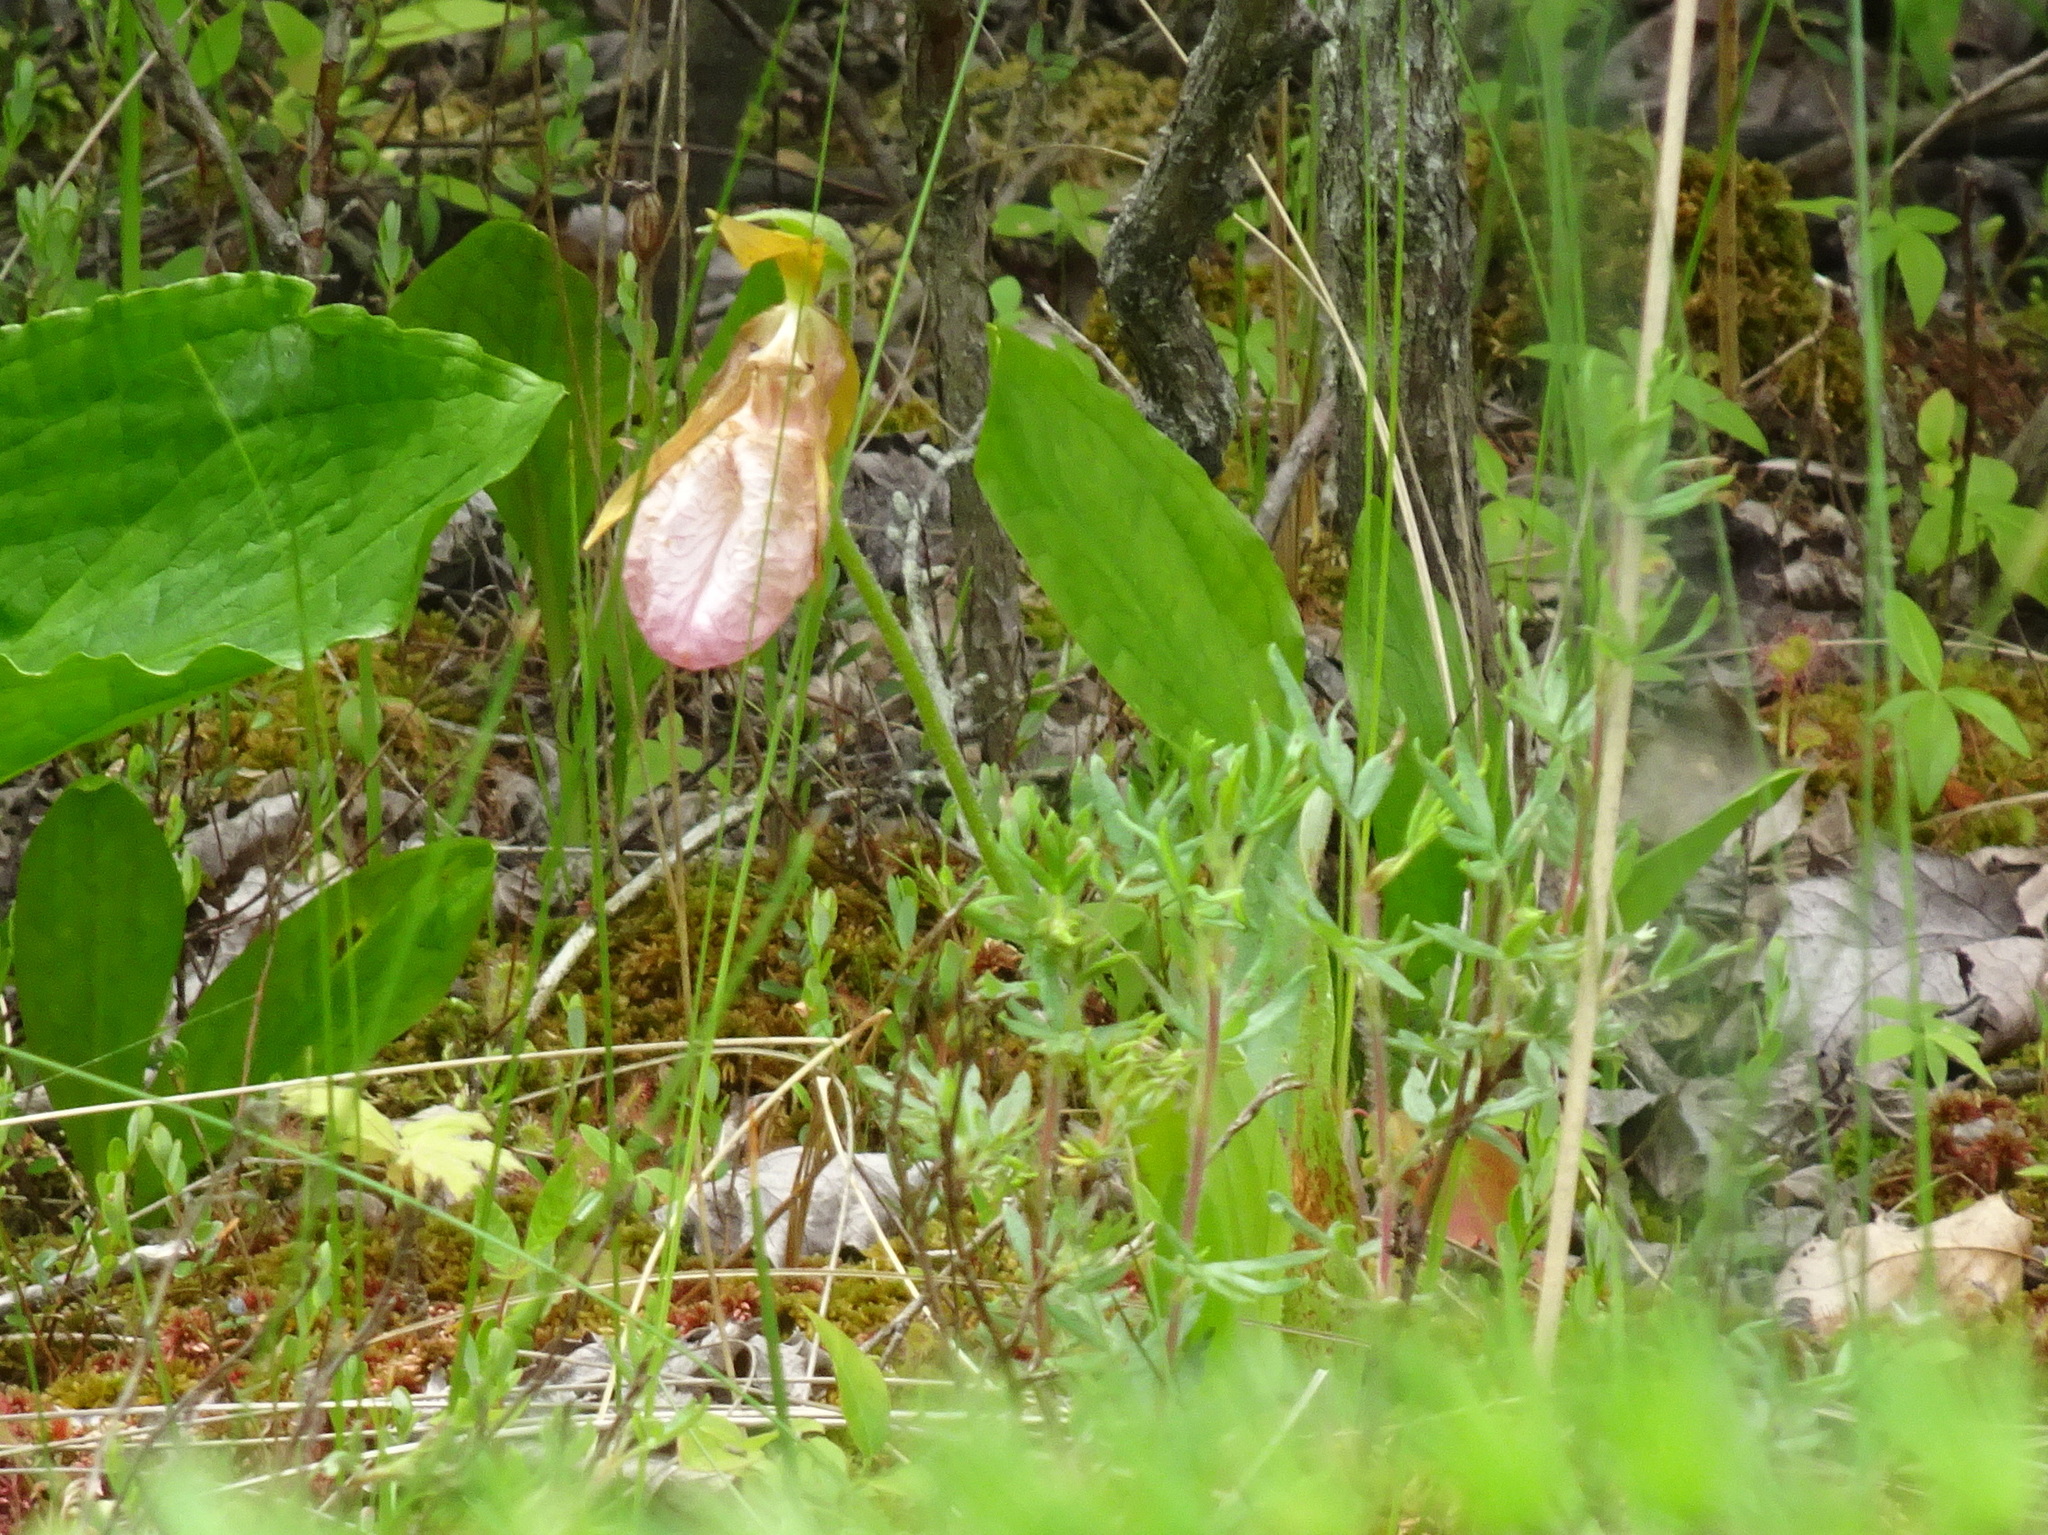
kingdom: Plantae
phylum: Tracheophyta
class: Liliopsida
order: Asparagales
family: Orchidaceae
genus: Cypripedium
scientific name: Cypripedium acaule
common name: Pink lady's-slipper
